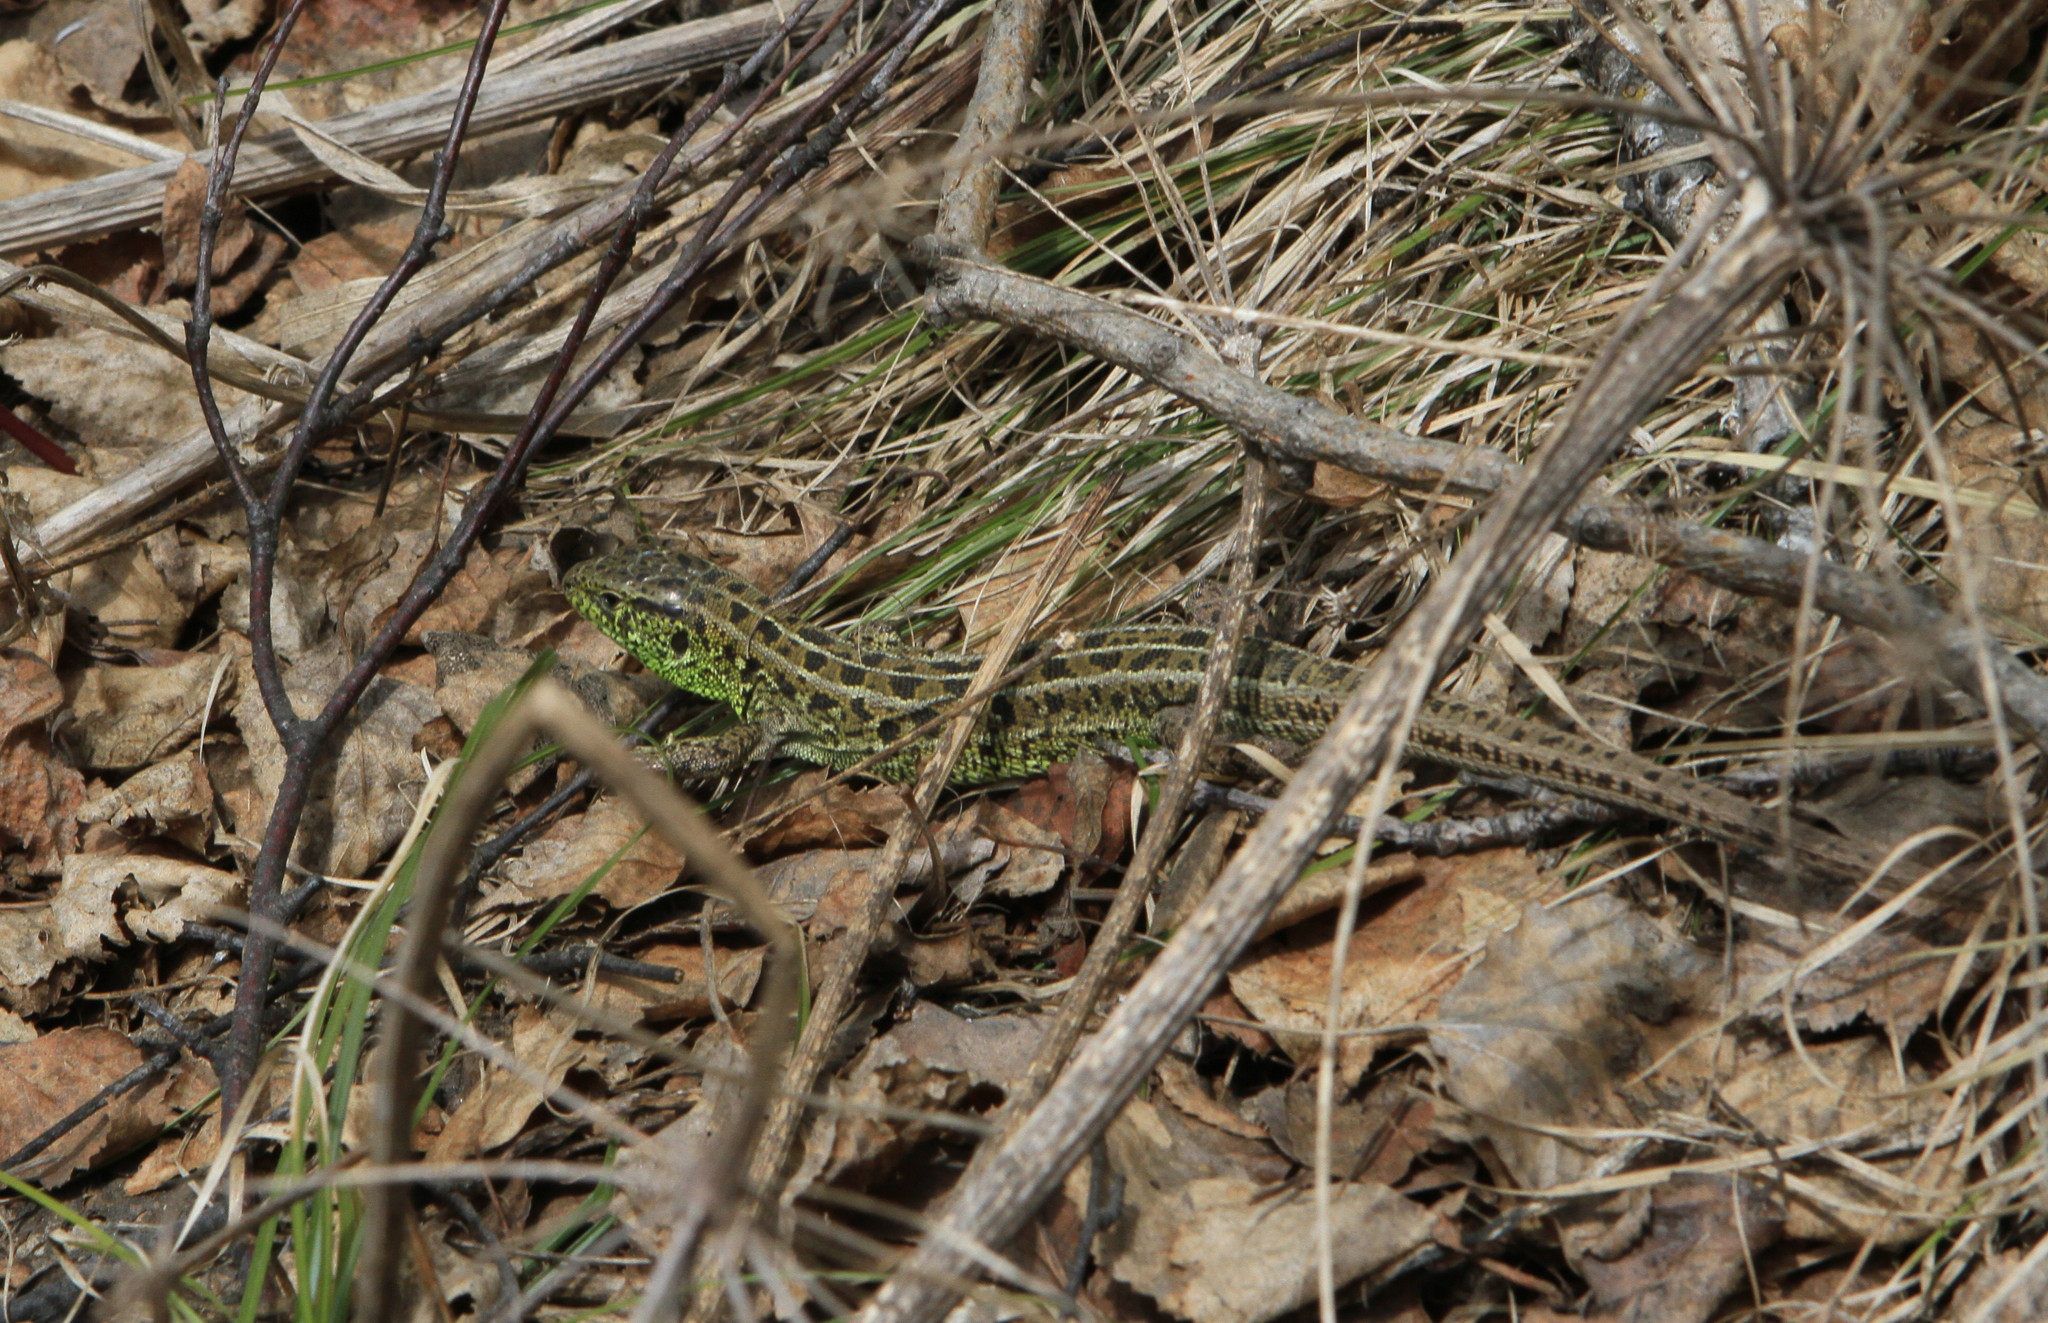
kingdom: Animalia
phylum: Chordata
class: Squamata
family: Lacertidae
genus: Lacerta
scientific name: Lacerta agilis
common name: Sand lizard
